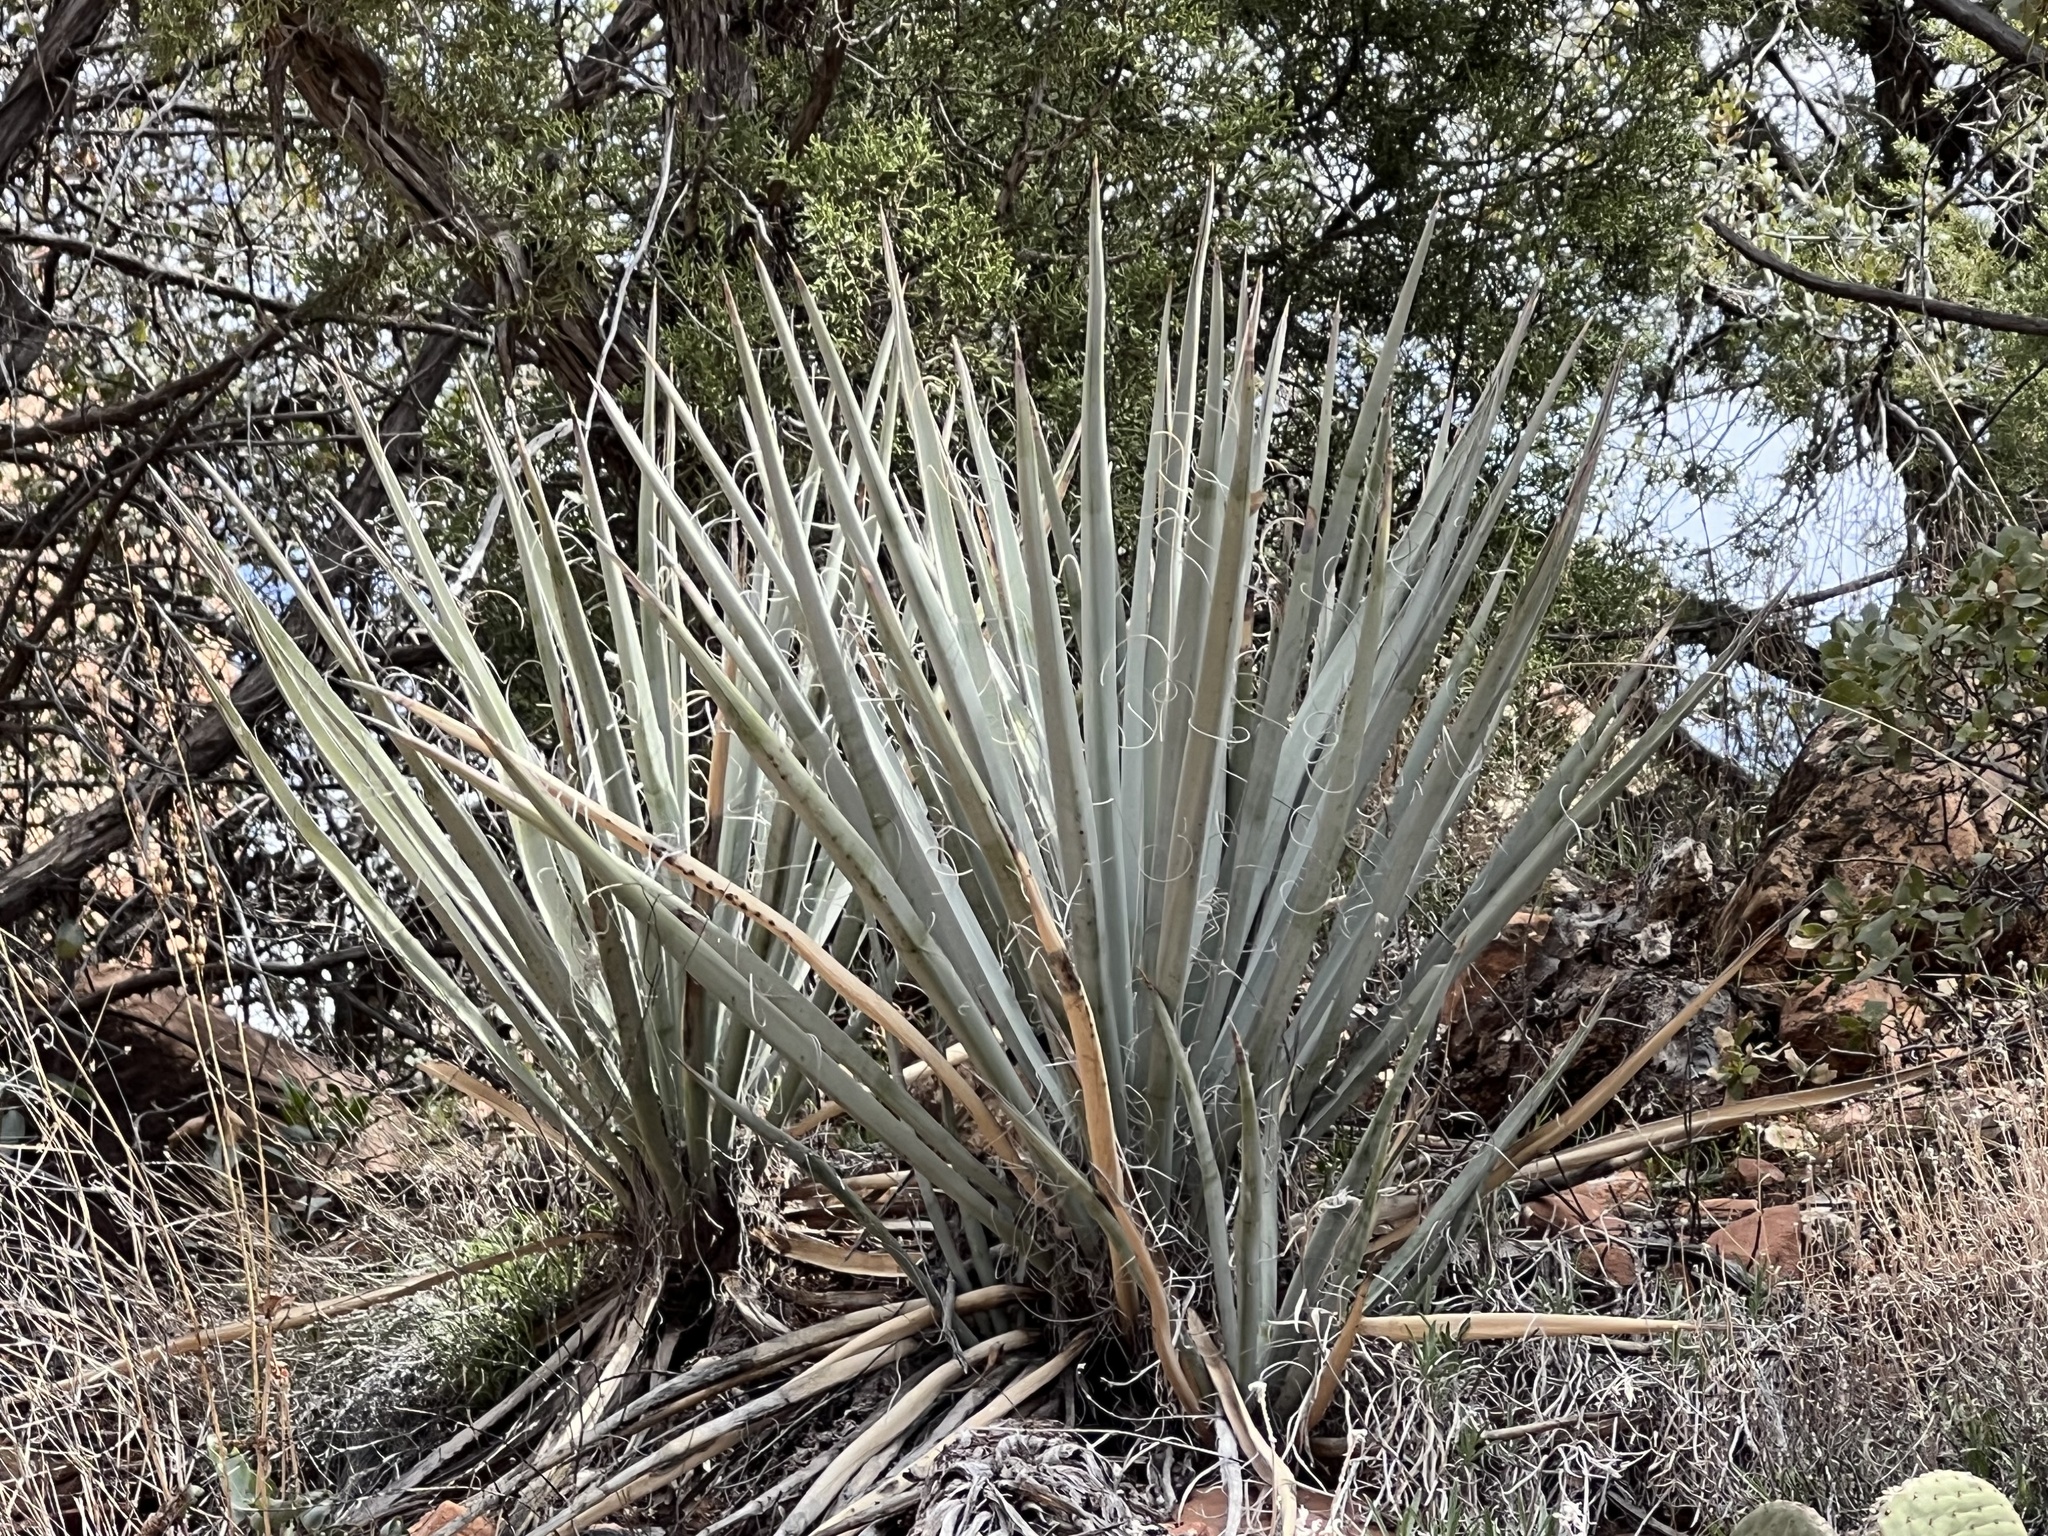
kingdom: Plantae
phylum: Tracheophyta
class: Liliopsida
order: Asparagales
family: Asparagaceae
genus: Yucca
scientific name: Yucca baccata
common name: Banana yucca
